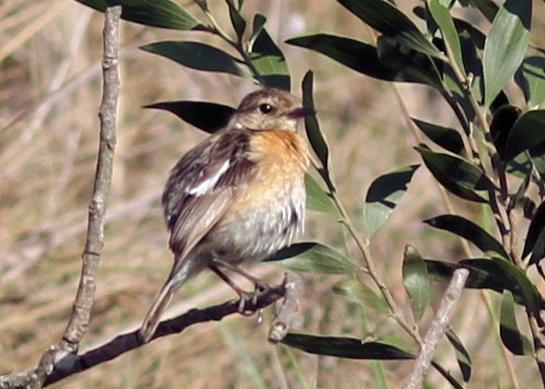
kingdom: Animalia
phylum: Chordata
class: Aves
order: Passeriformes
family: Muscicapidae
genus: Saxicola
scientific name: Saxicola torquatus
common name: African stonechat
